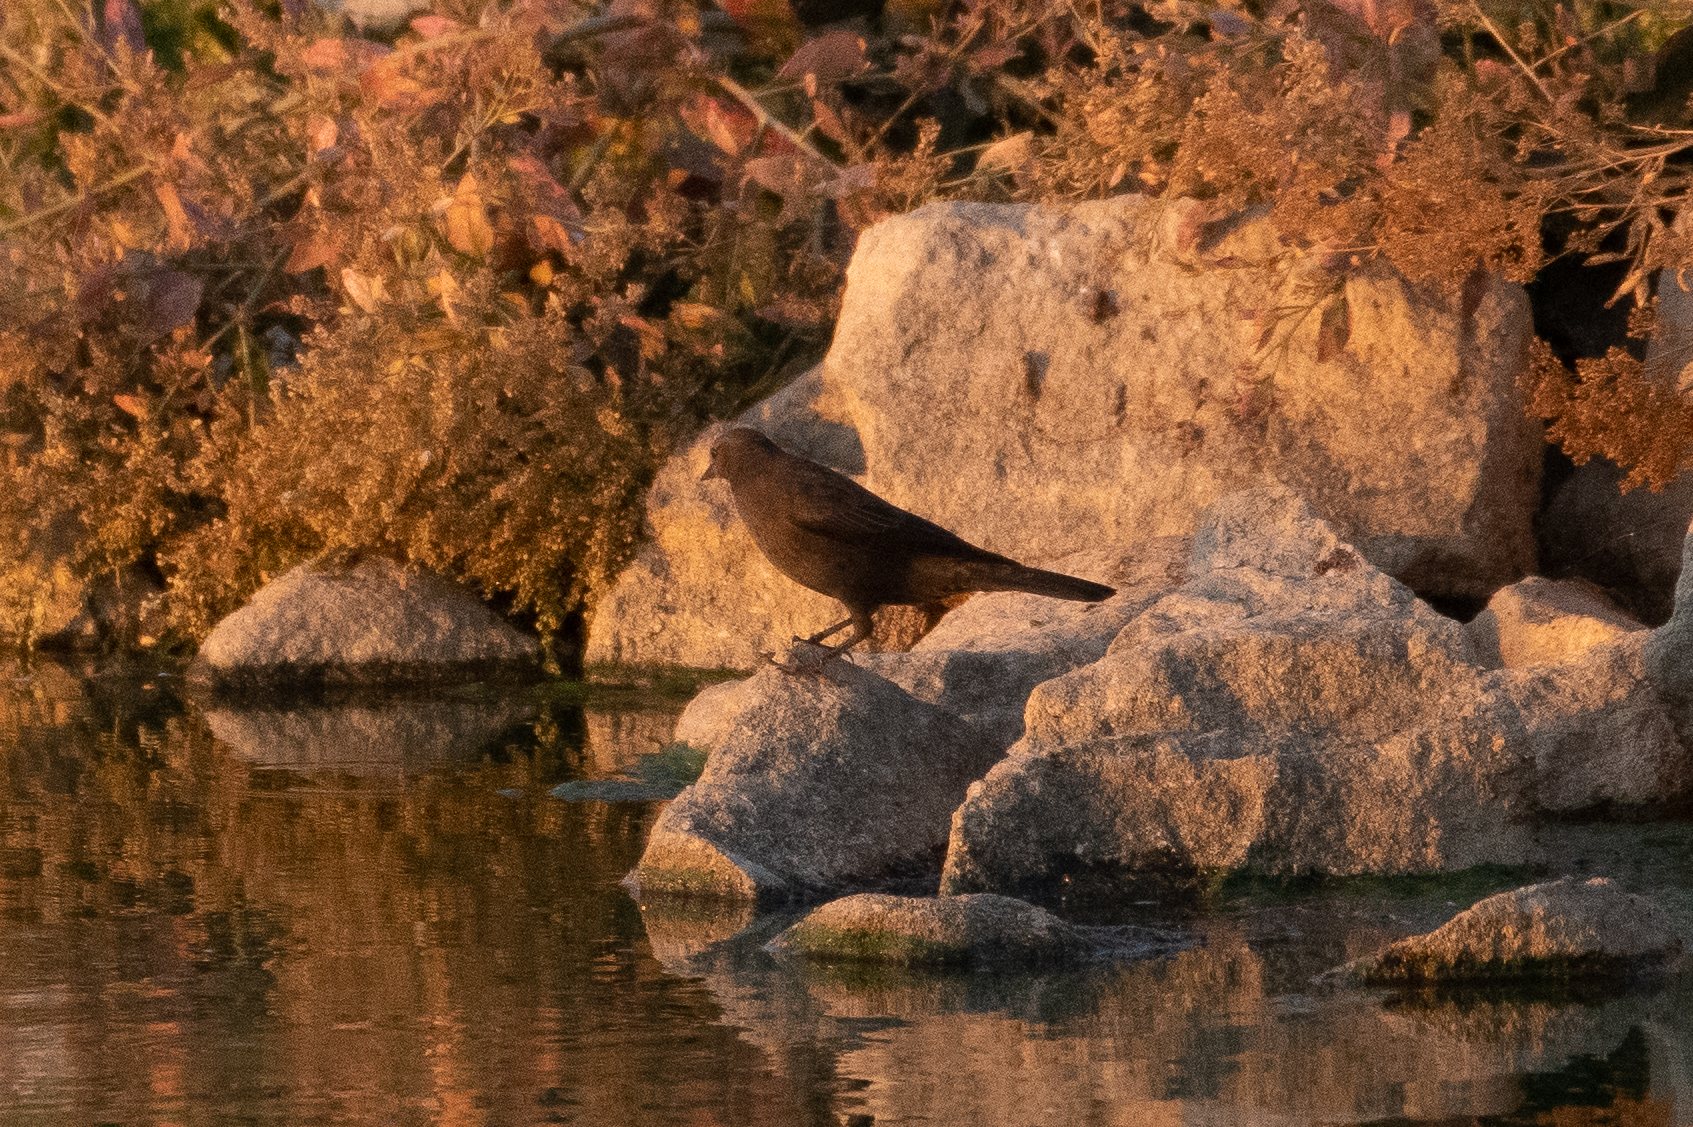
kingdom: Animalia
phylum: Chordata
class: Aves
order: Passeriformes
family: Icteridae
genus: Euphagus
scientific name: Euphagus cyanocephalus
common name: Brewer's blackbird
